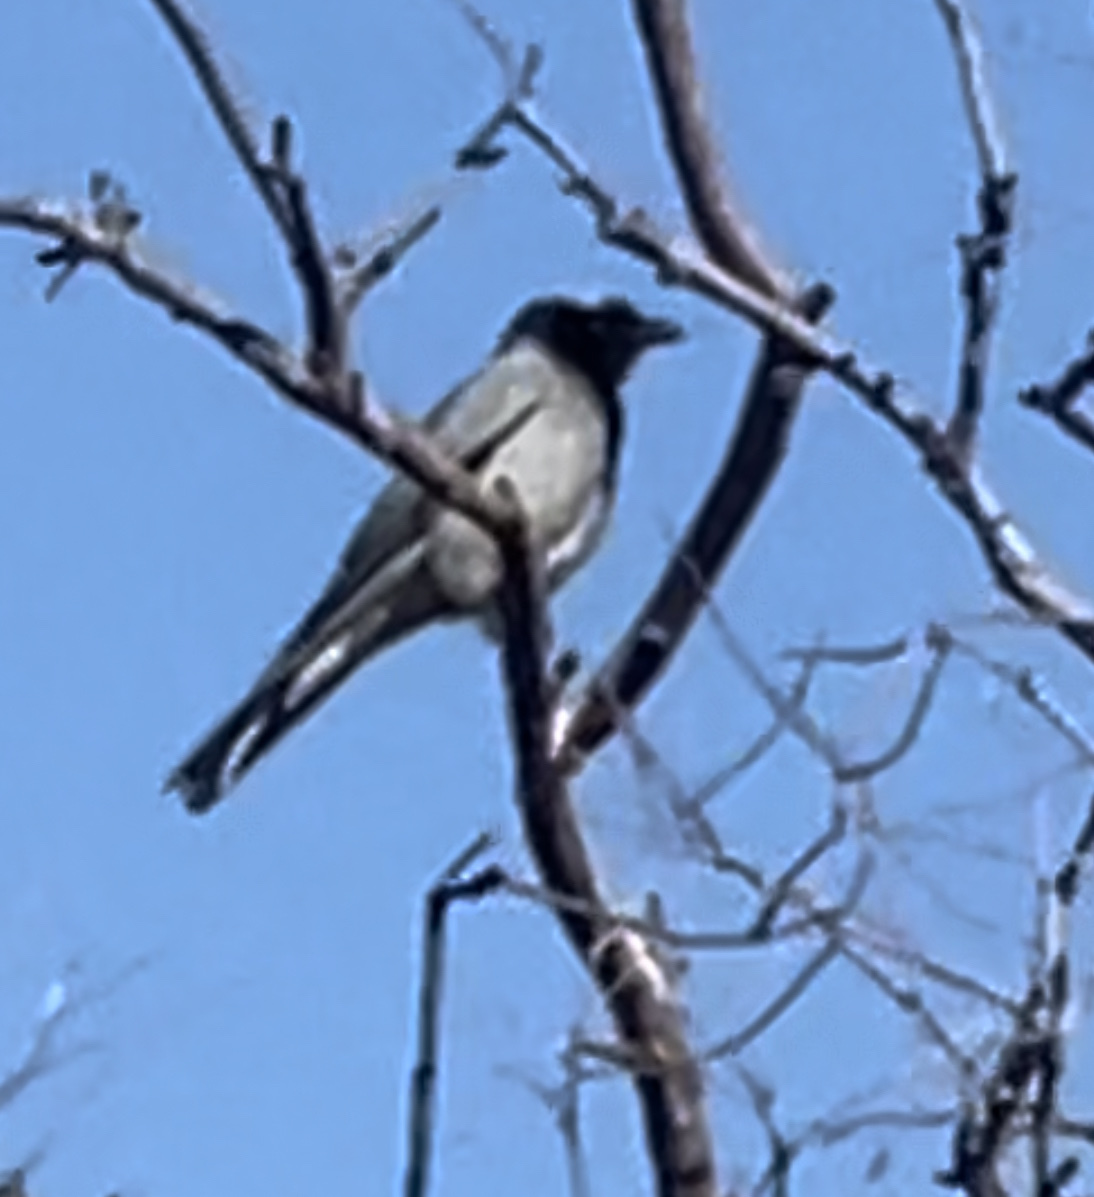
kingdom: Animalia
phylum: Chordata
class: Aves
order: Passeriformes
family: Campephagidae
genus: Coracina
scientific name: Coracina novaehollandiae
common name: Black-faced cuckooshrike
